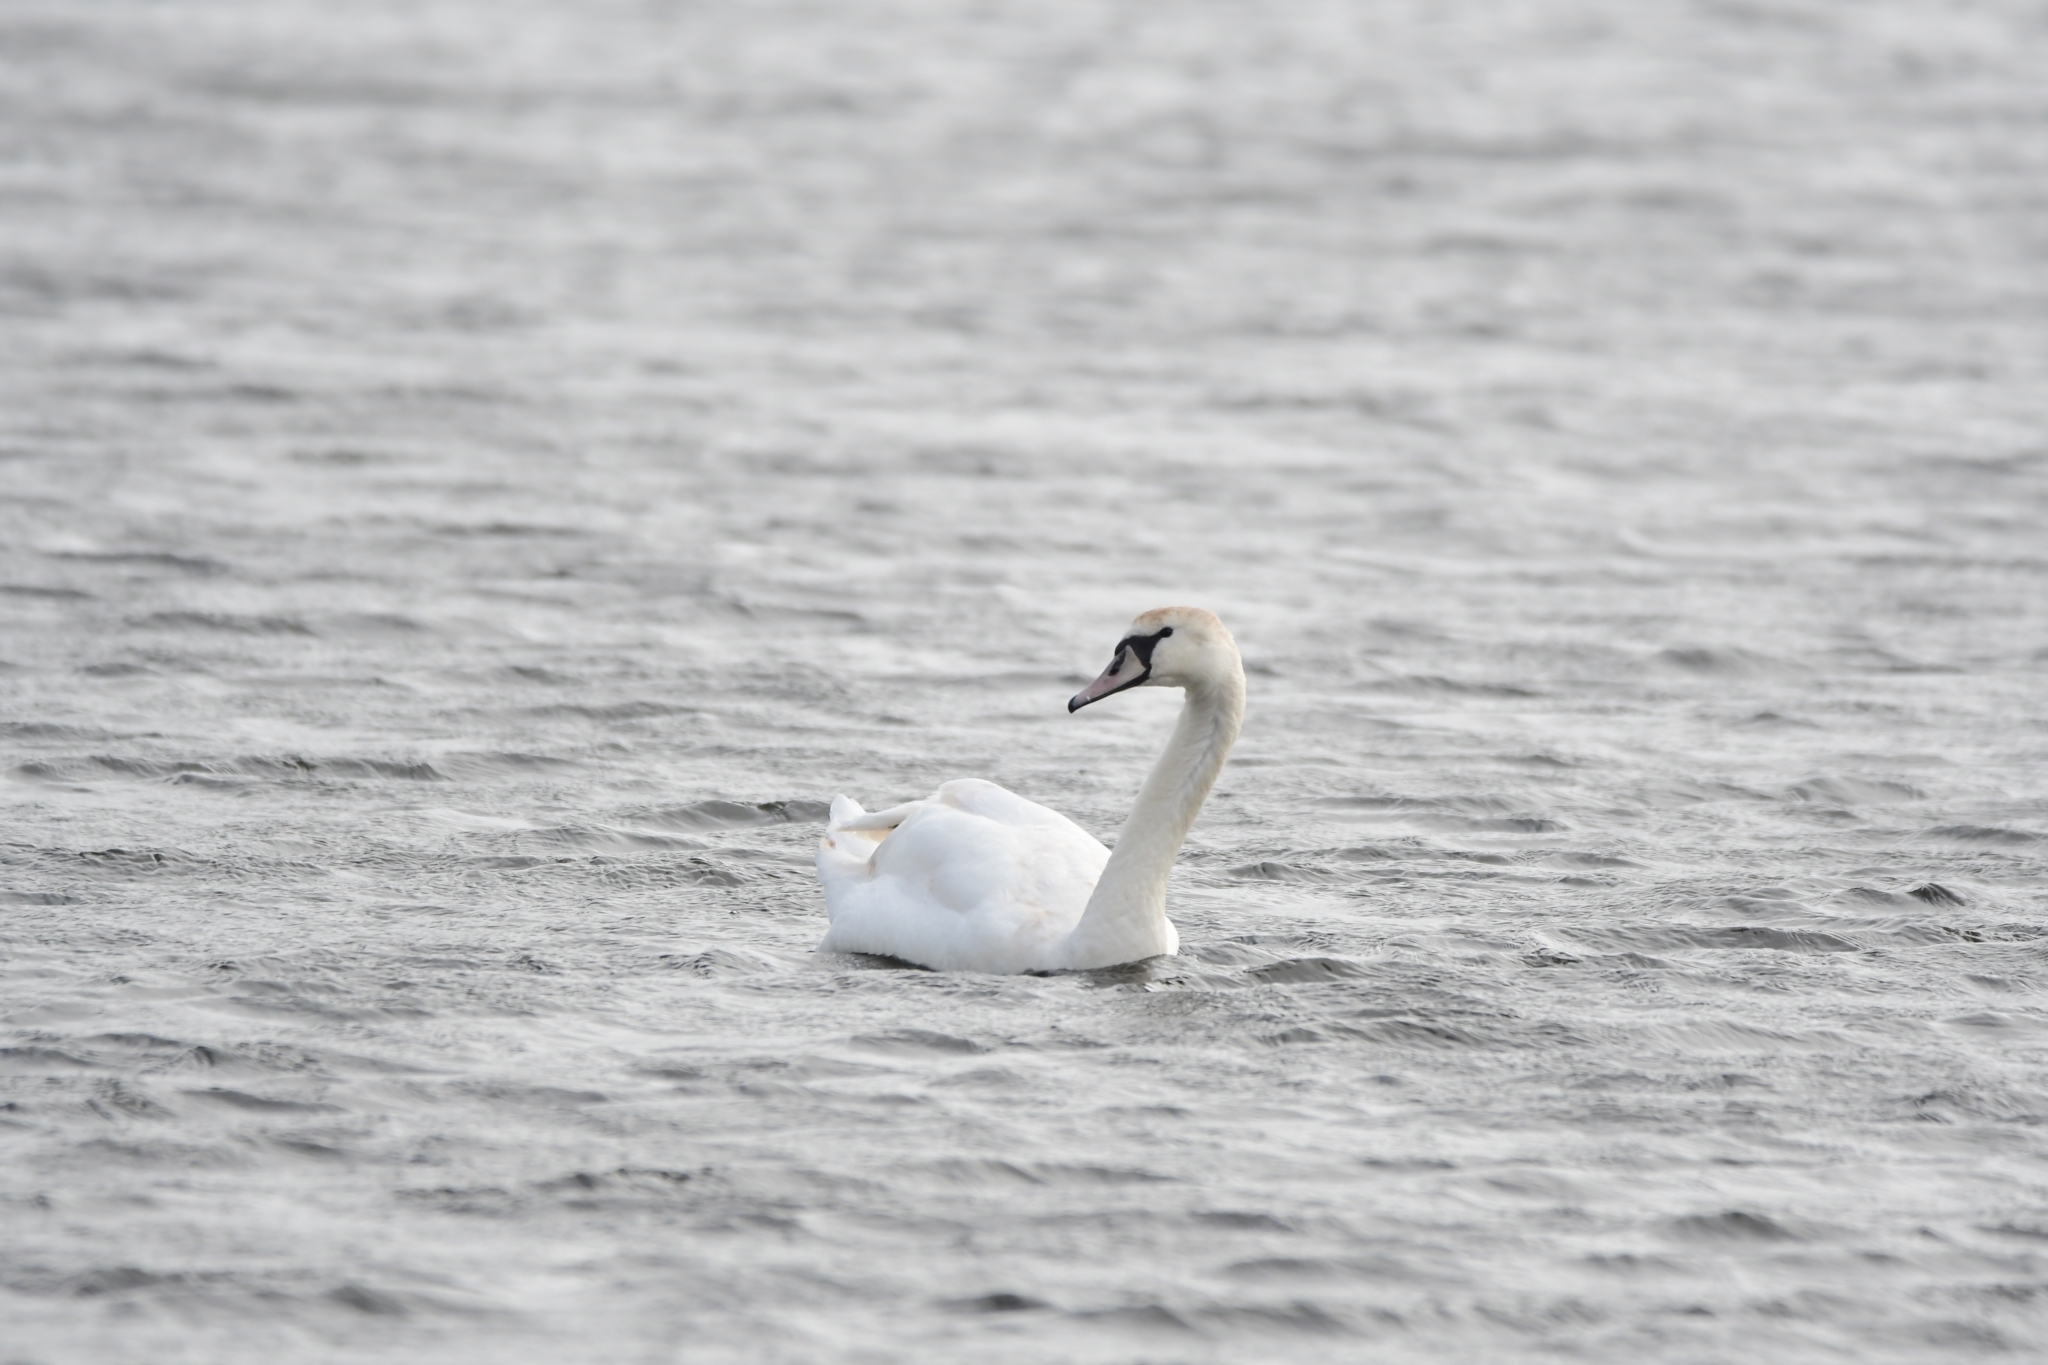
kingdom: Animalia
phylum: Chordata
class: Aves
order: Anseriformes
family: Anatidae
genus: Cygnus
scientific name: Cygnus olor
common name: Mute swan
